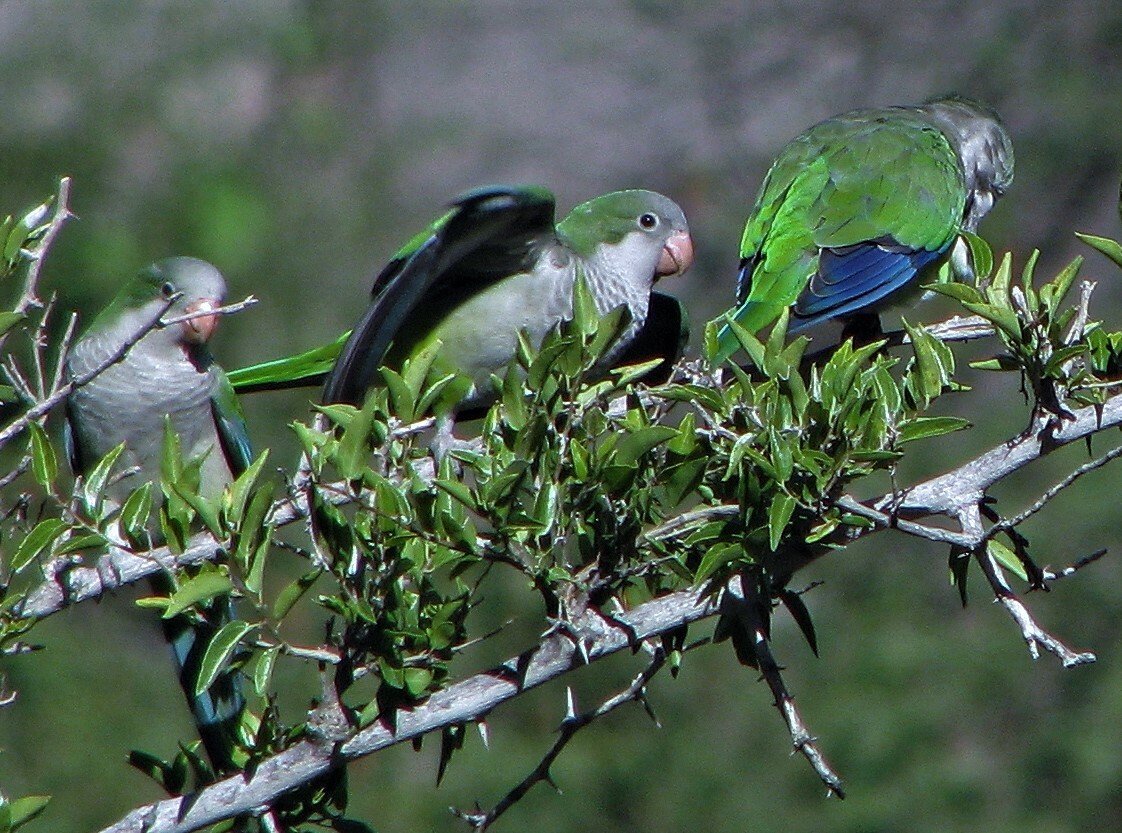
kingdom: Animalia
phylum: Chordata
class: Aves
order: Psittaciformes
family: Psittacidae
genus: Myiopsitta
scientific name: Myiopsitta monachus
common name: Monk parakeet
